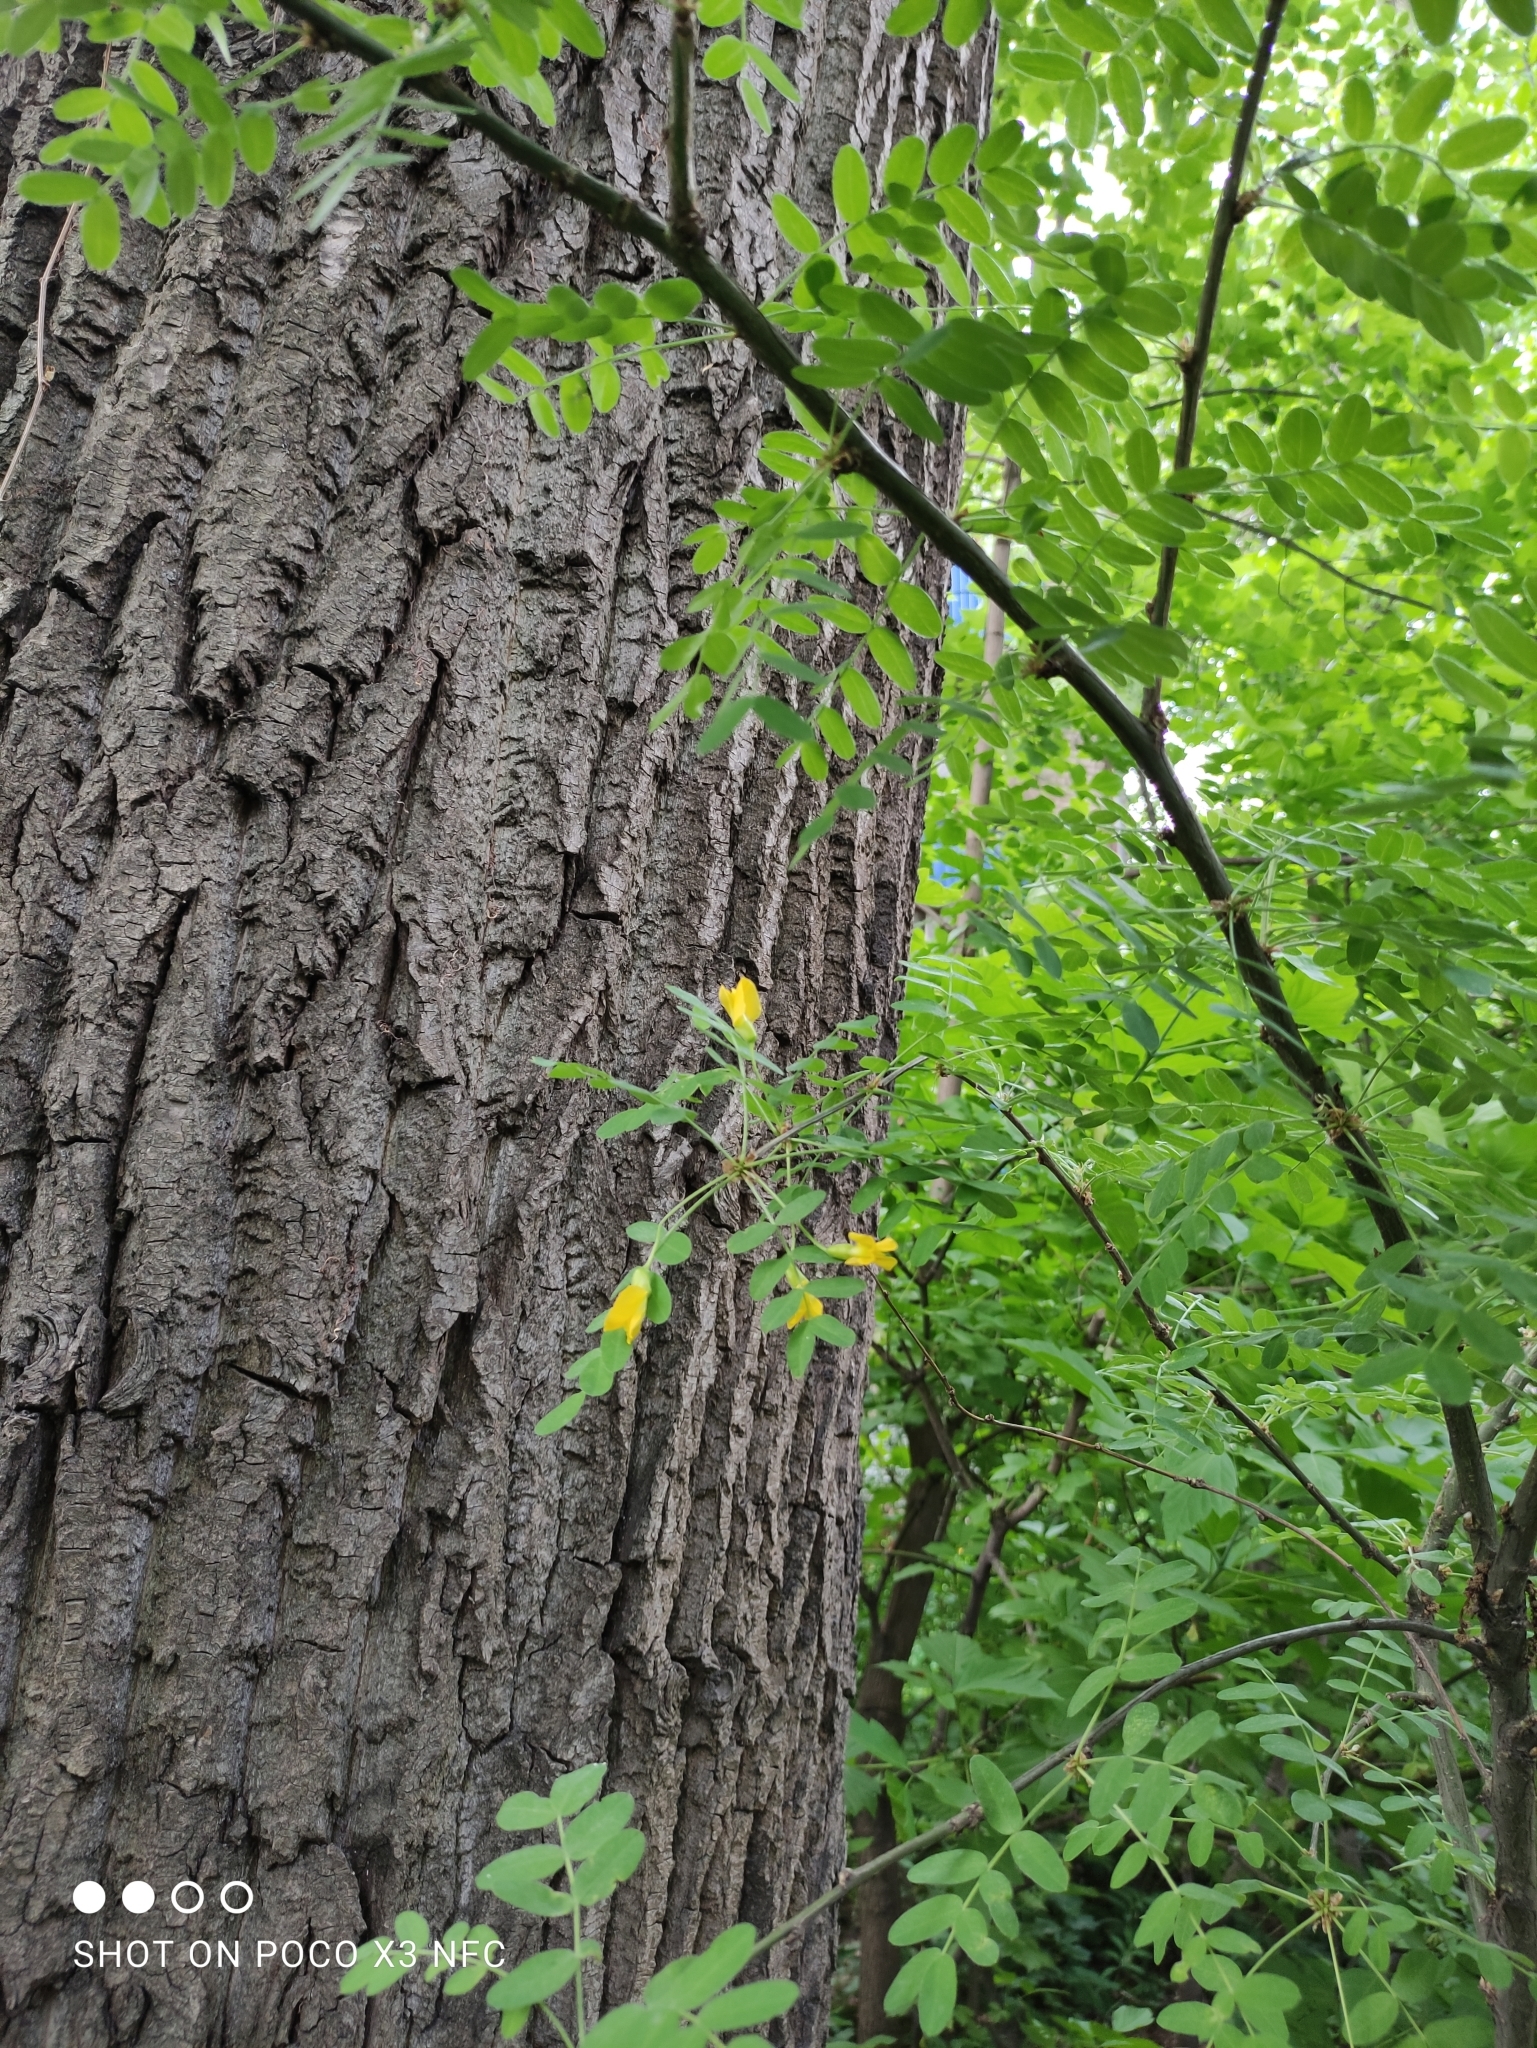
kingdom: Plantae
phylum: Tracheophyta
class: Magnoliopsida
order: Fabales
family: Fabaceae
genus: Caragana
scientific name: Caragana arborescens
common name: Siberian peashrub
